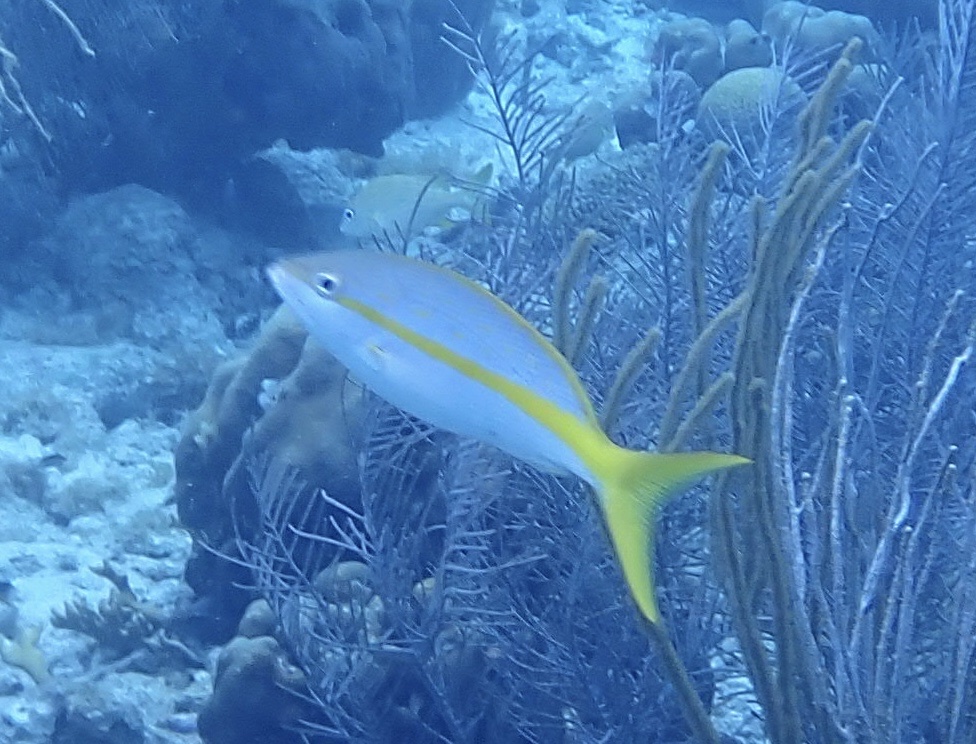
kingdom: Animalia
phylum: Chordata
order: Perciformes
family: Lutjanidae
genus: Ocyurus
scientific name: Ocyurus chrysurus
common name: Yellowtail snapper
